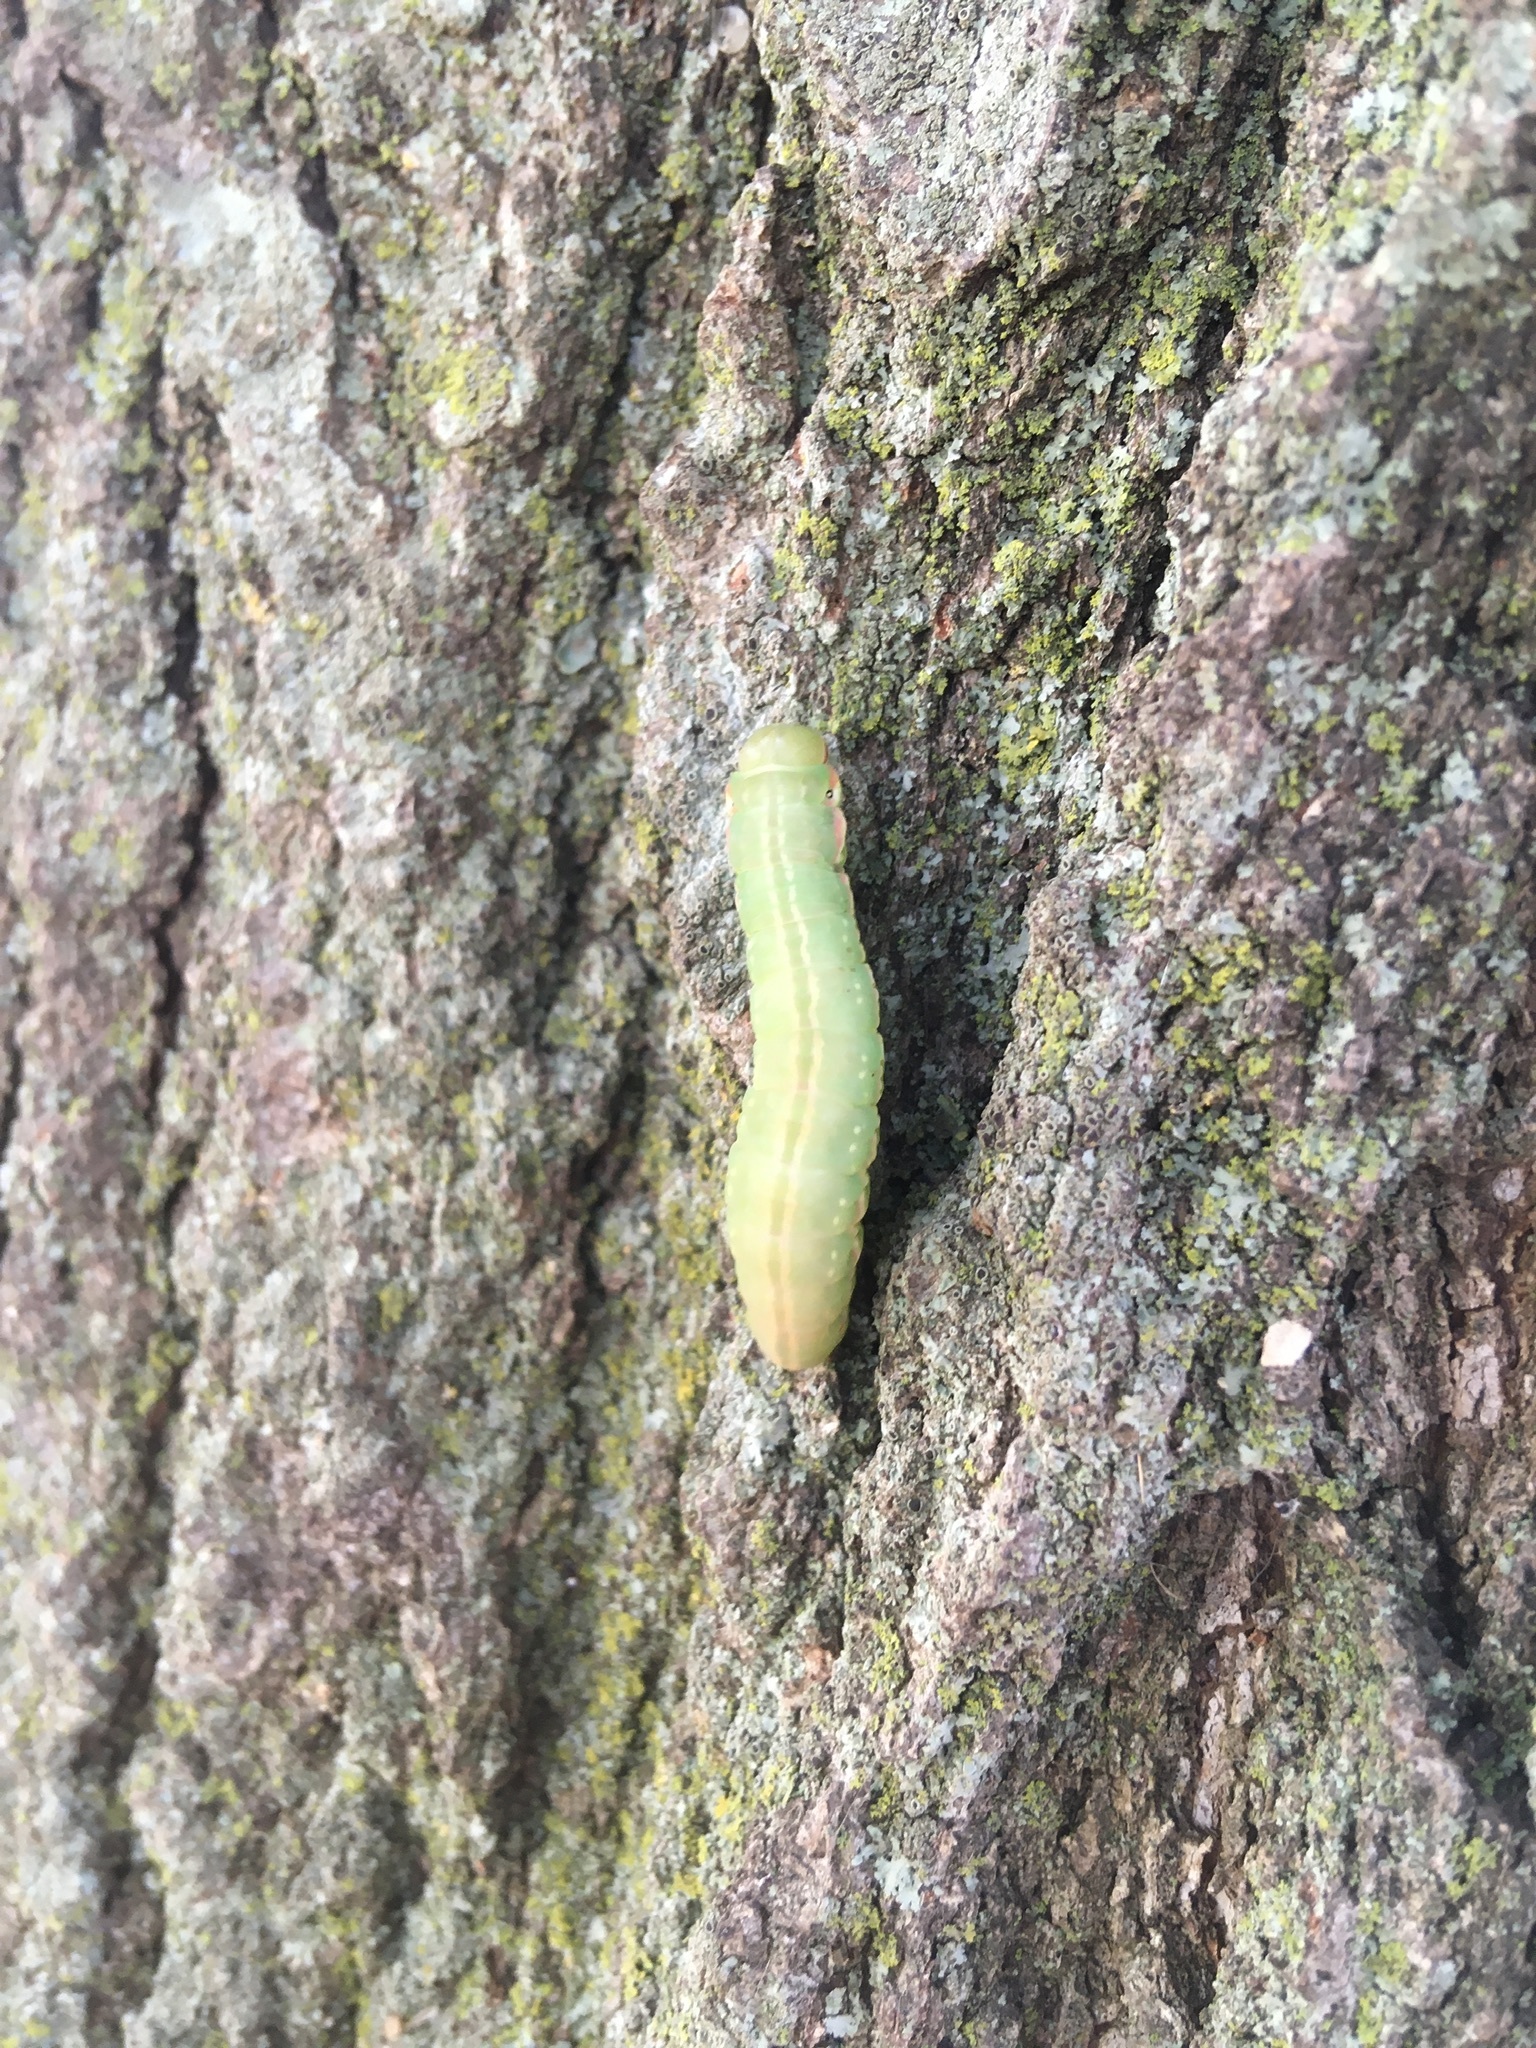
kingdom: Animalia
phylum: Arthropoda
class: Insecta
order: Lepidoptera
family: Notodontidae
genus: Peridea
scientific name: Peridea angulosa
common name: Angulose prominent
